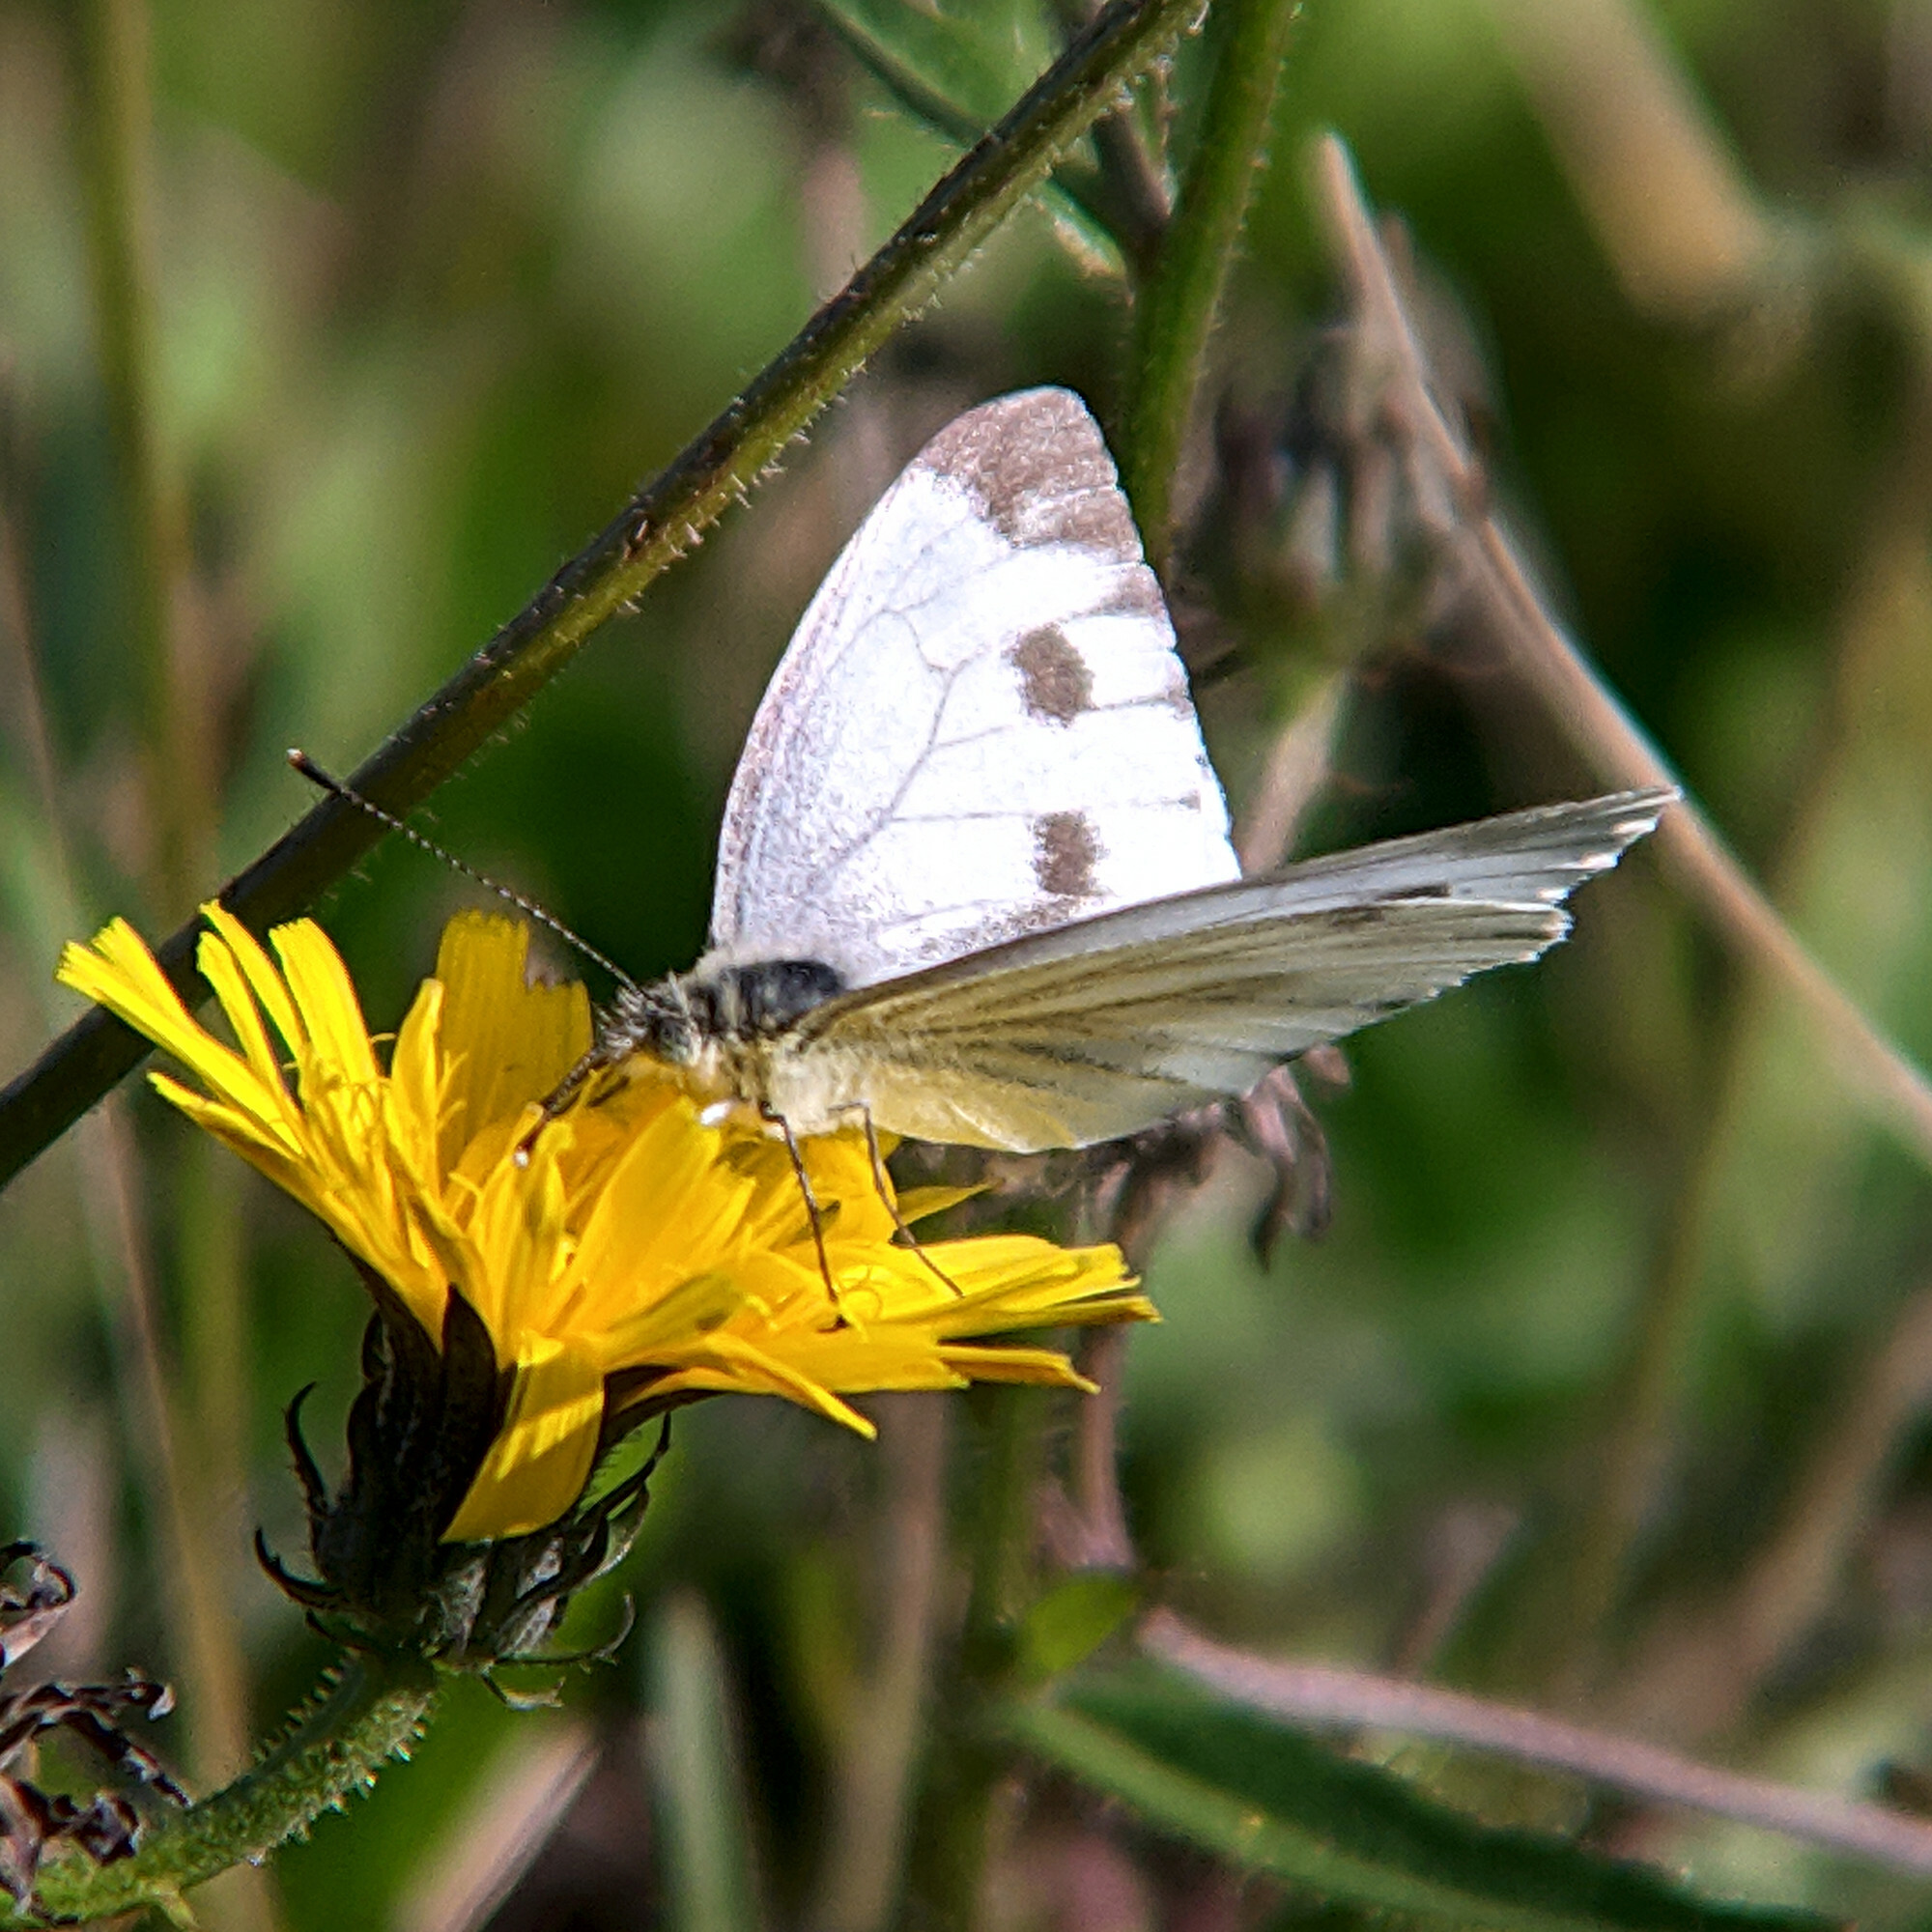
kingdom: Animalia
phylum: Arthropoda
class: Insecta
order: Lepidoptera
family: Pieridae
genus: Pieris
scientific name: Pieris napi
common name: Green-veined white
